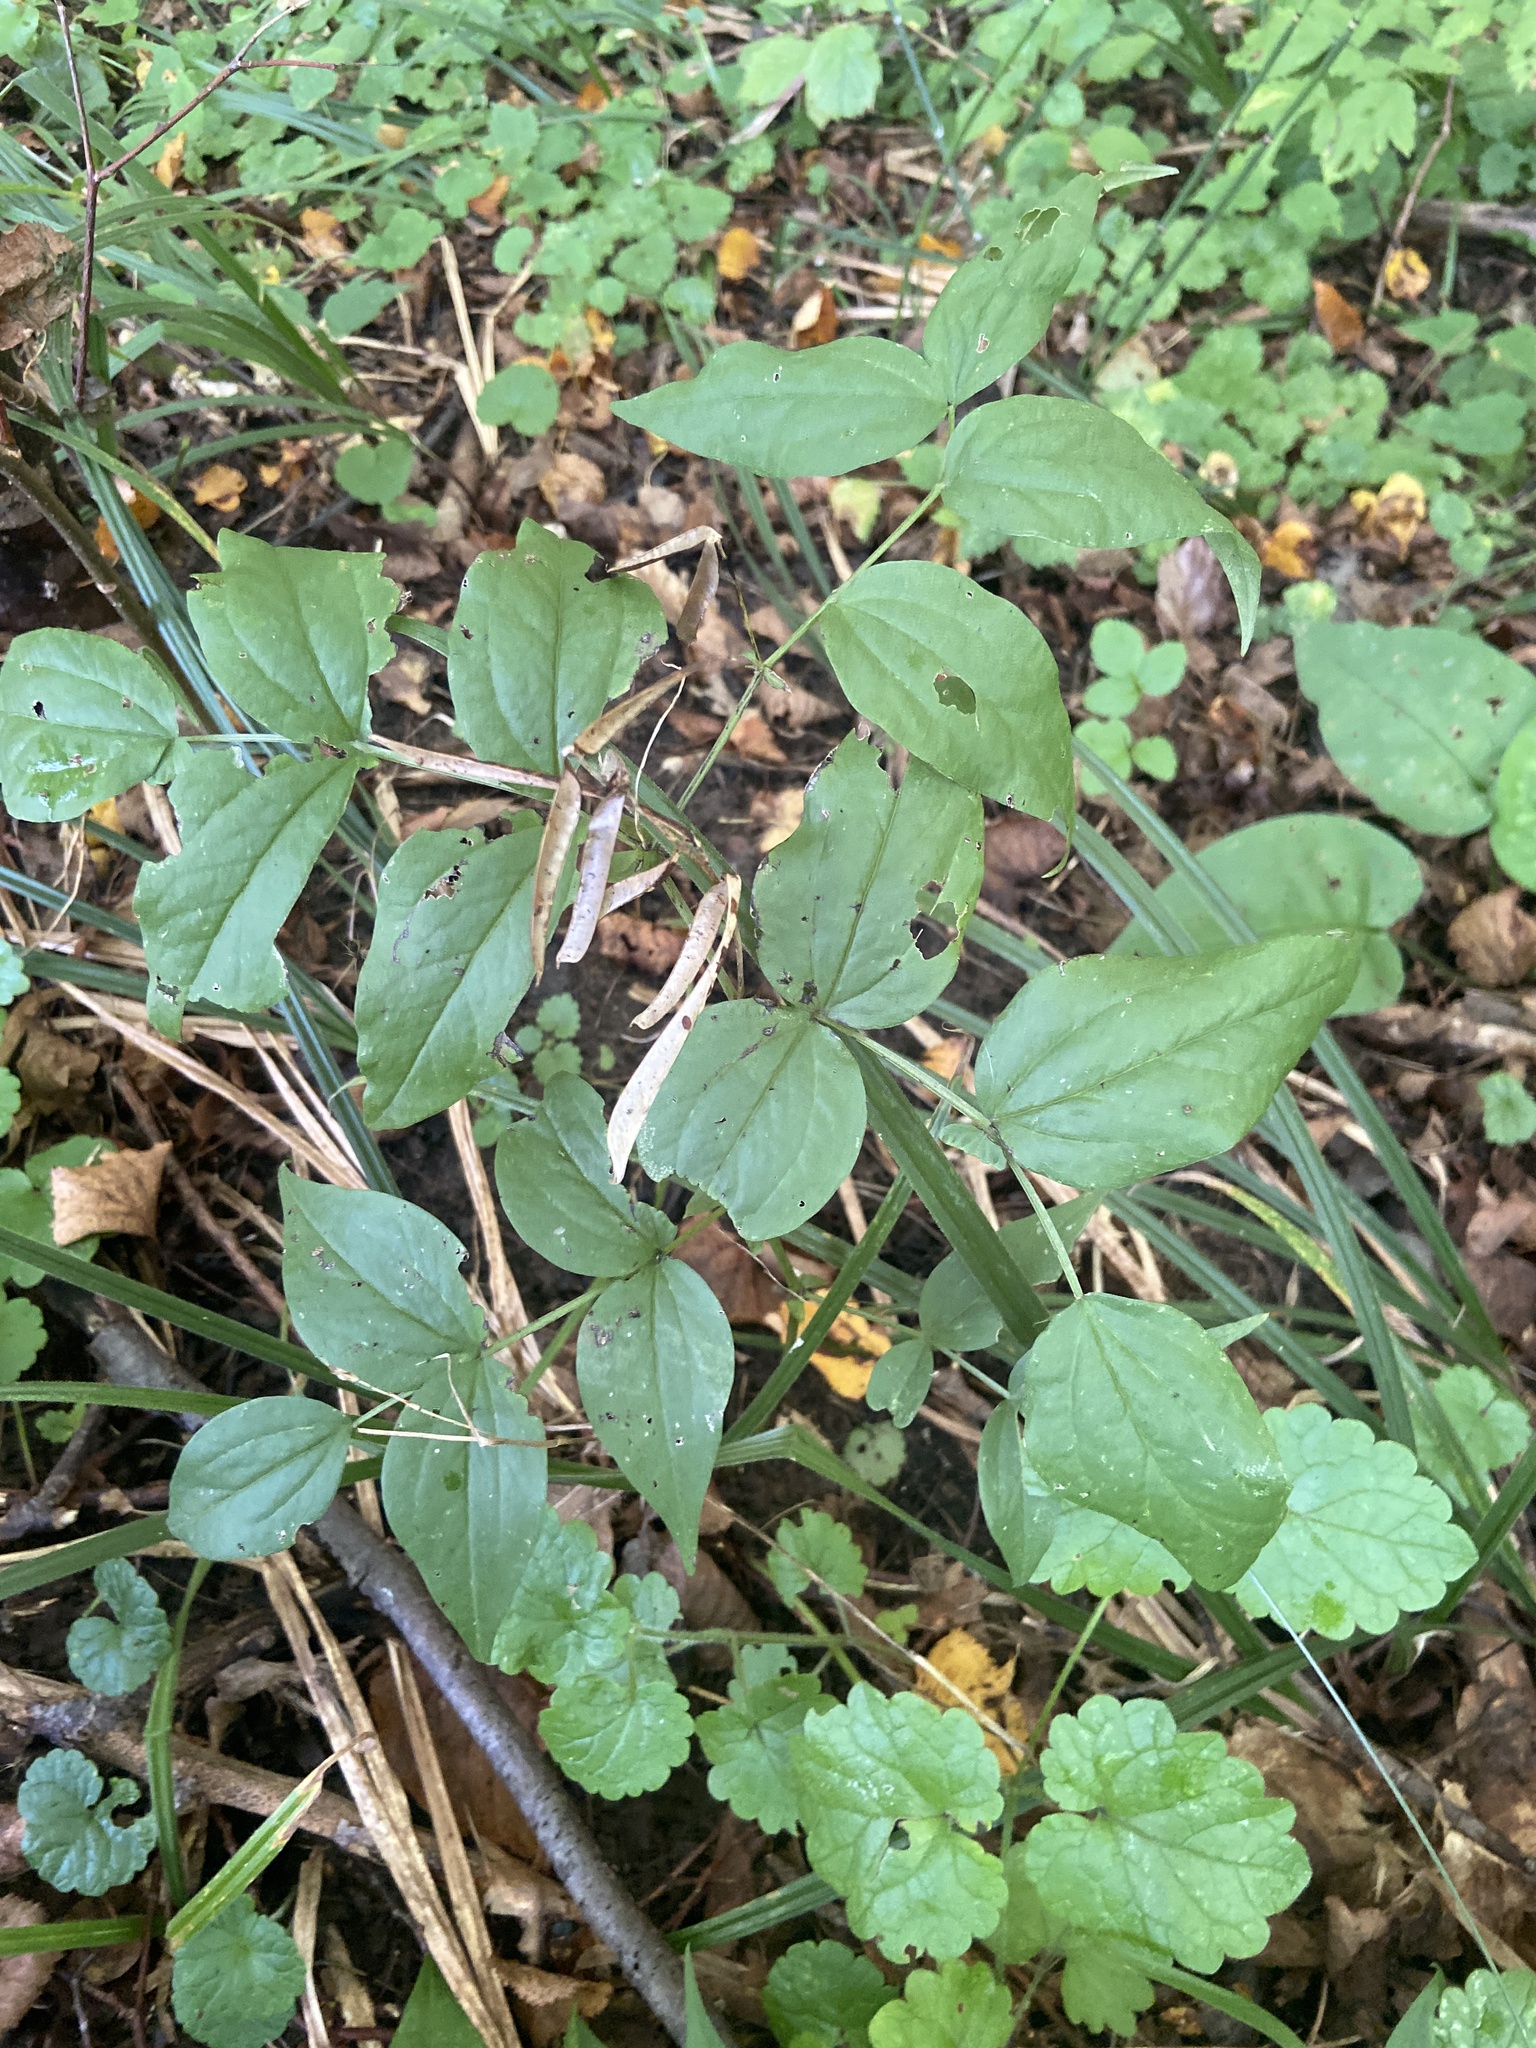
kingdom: Plantae
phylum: Tracheophyta
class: Magnoliopsida
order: Fabales
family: Fabaceae
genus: Lathyrus
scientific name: Lathyrus vernus
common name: Spring pea
